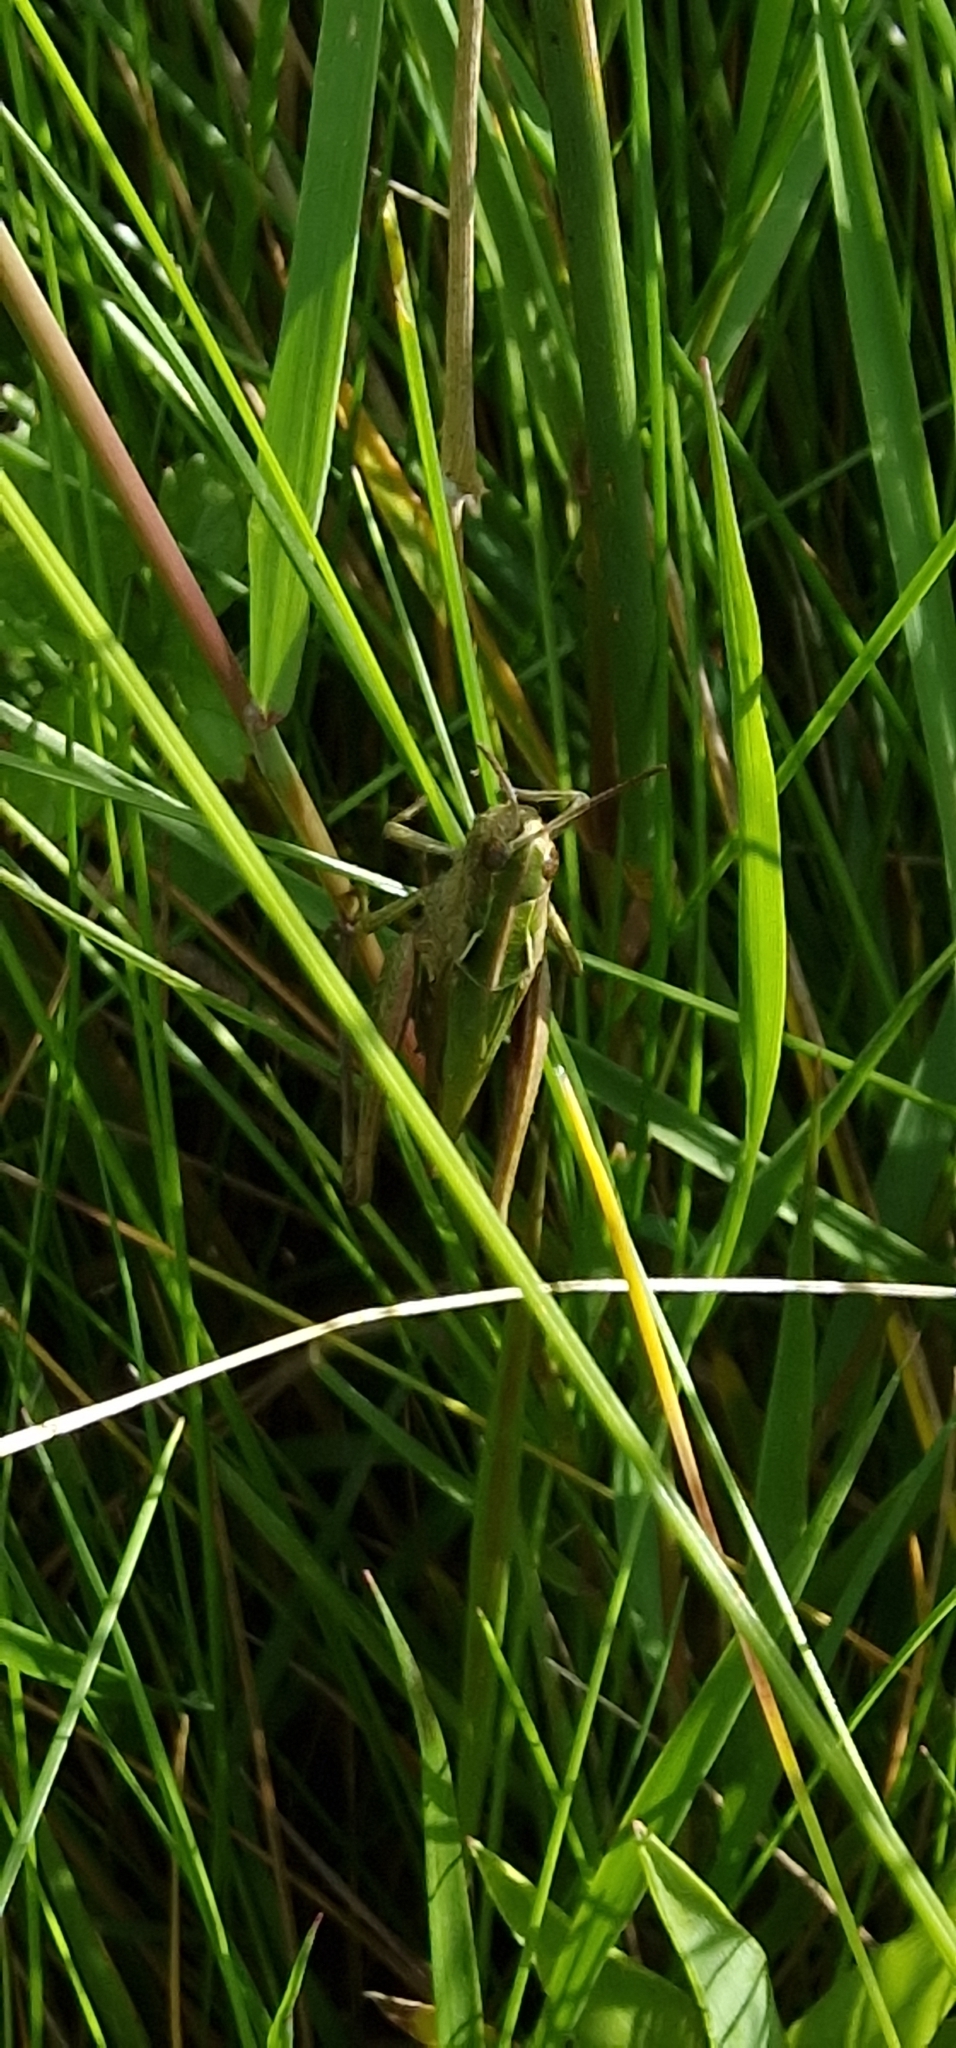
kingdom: Animalia
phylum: Arthropoda
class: Insecta
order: Orthoptera
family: Acrididae
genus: Omocestus
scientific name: Omocestus viridulus
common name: Common green grasshopper
